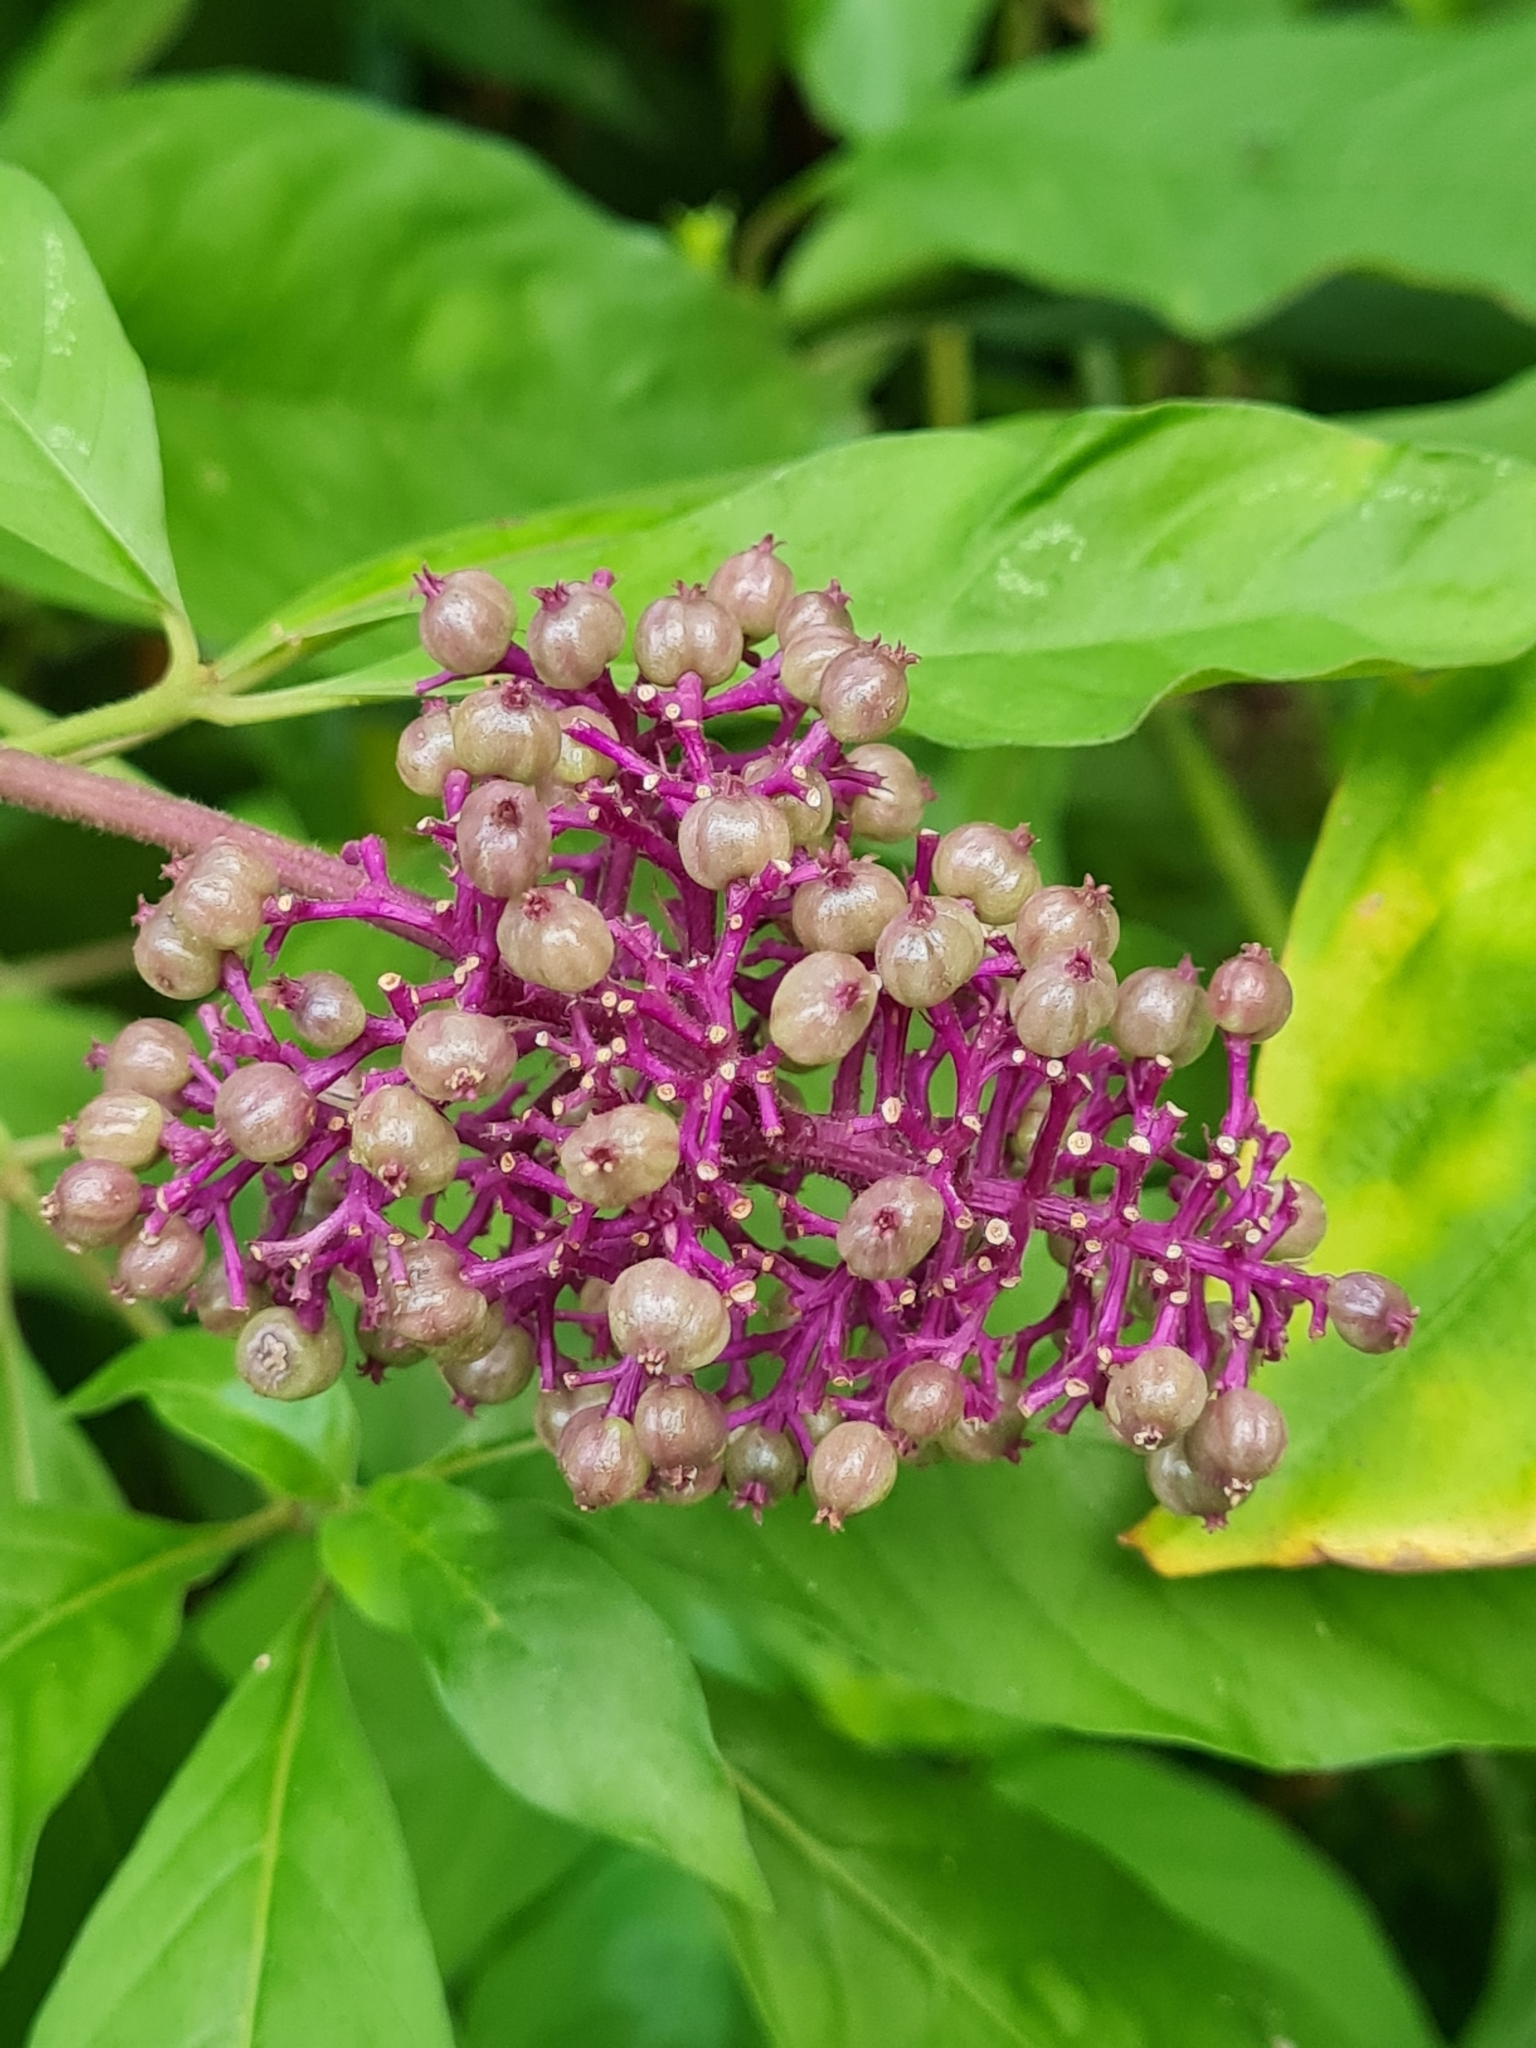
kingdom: Plantae
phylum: Tracheophyta
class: Magnoliopsida
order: Gentianales
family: Rubiaceae
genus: Palicourea
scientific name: Palicourea hebeclada
